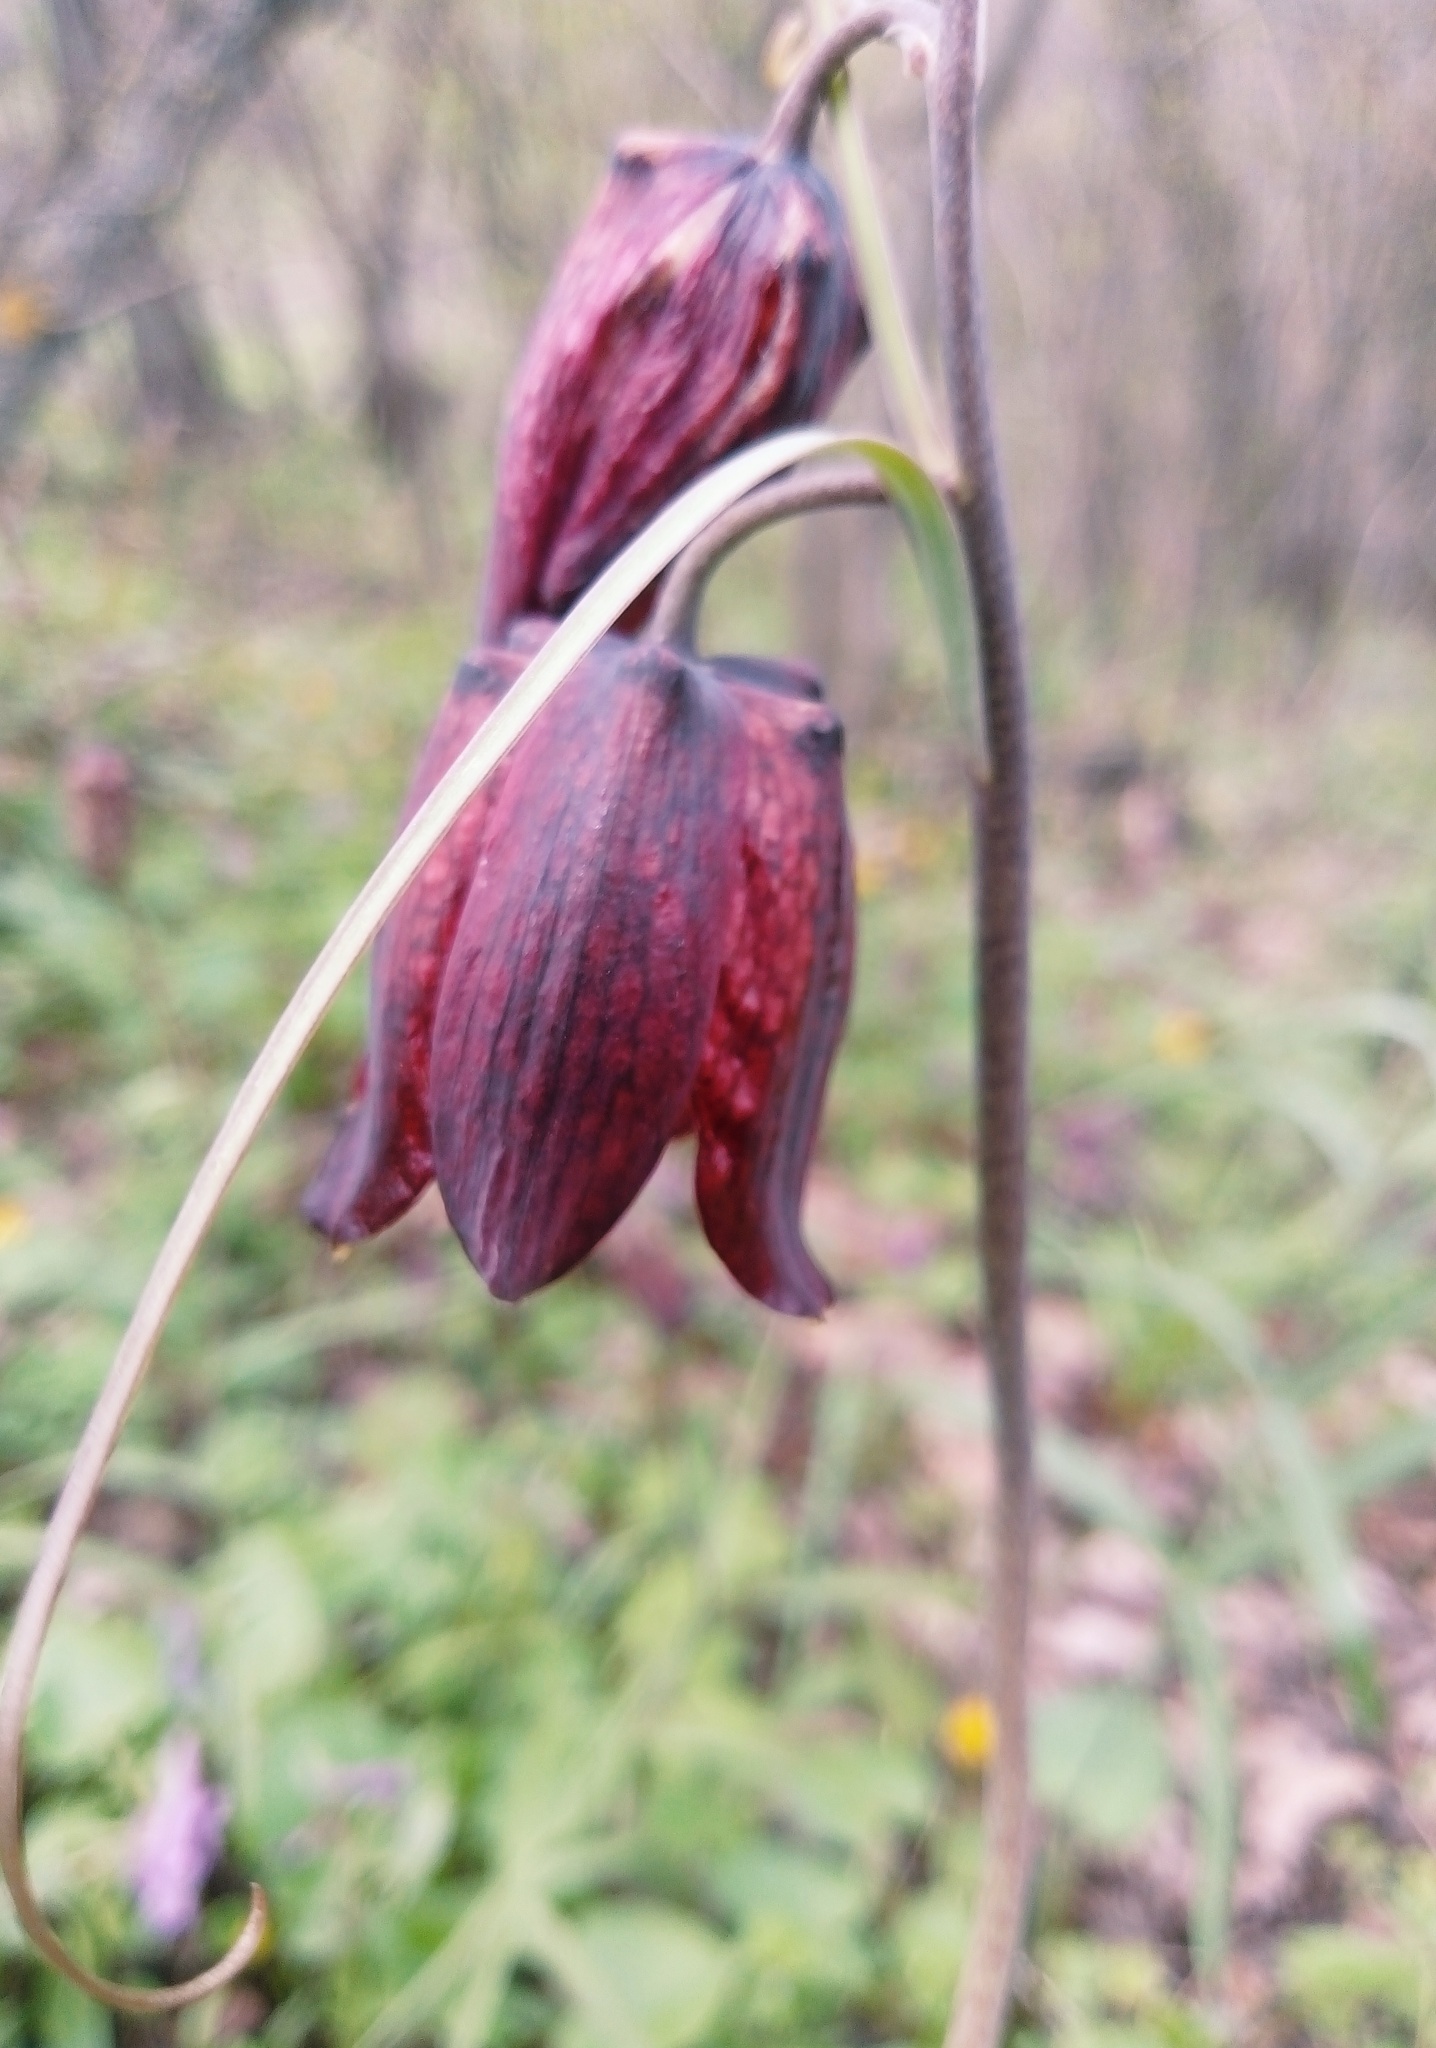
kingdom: Plantae
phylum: Tracheophyta
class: Liliopsida
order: Liliales
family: Liliaceae
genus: Fritillaria
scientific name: Fritillaria ruthenica
